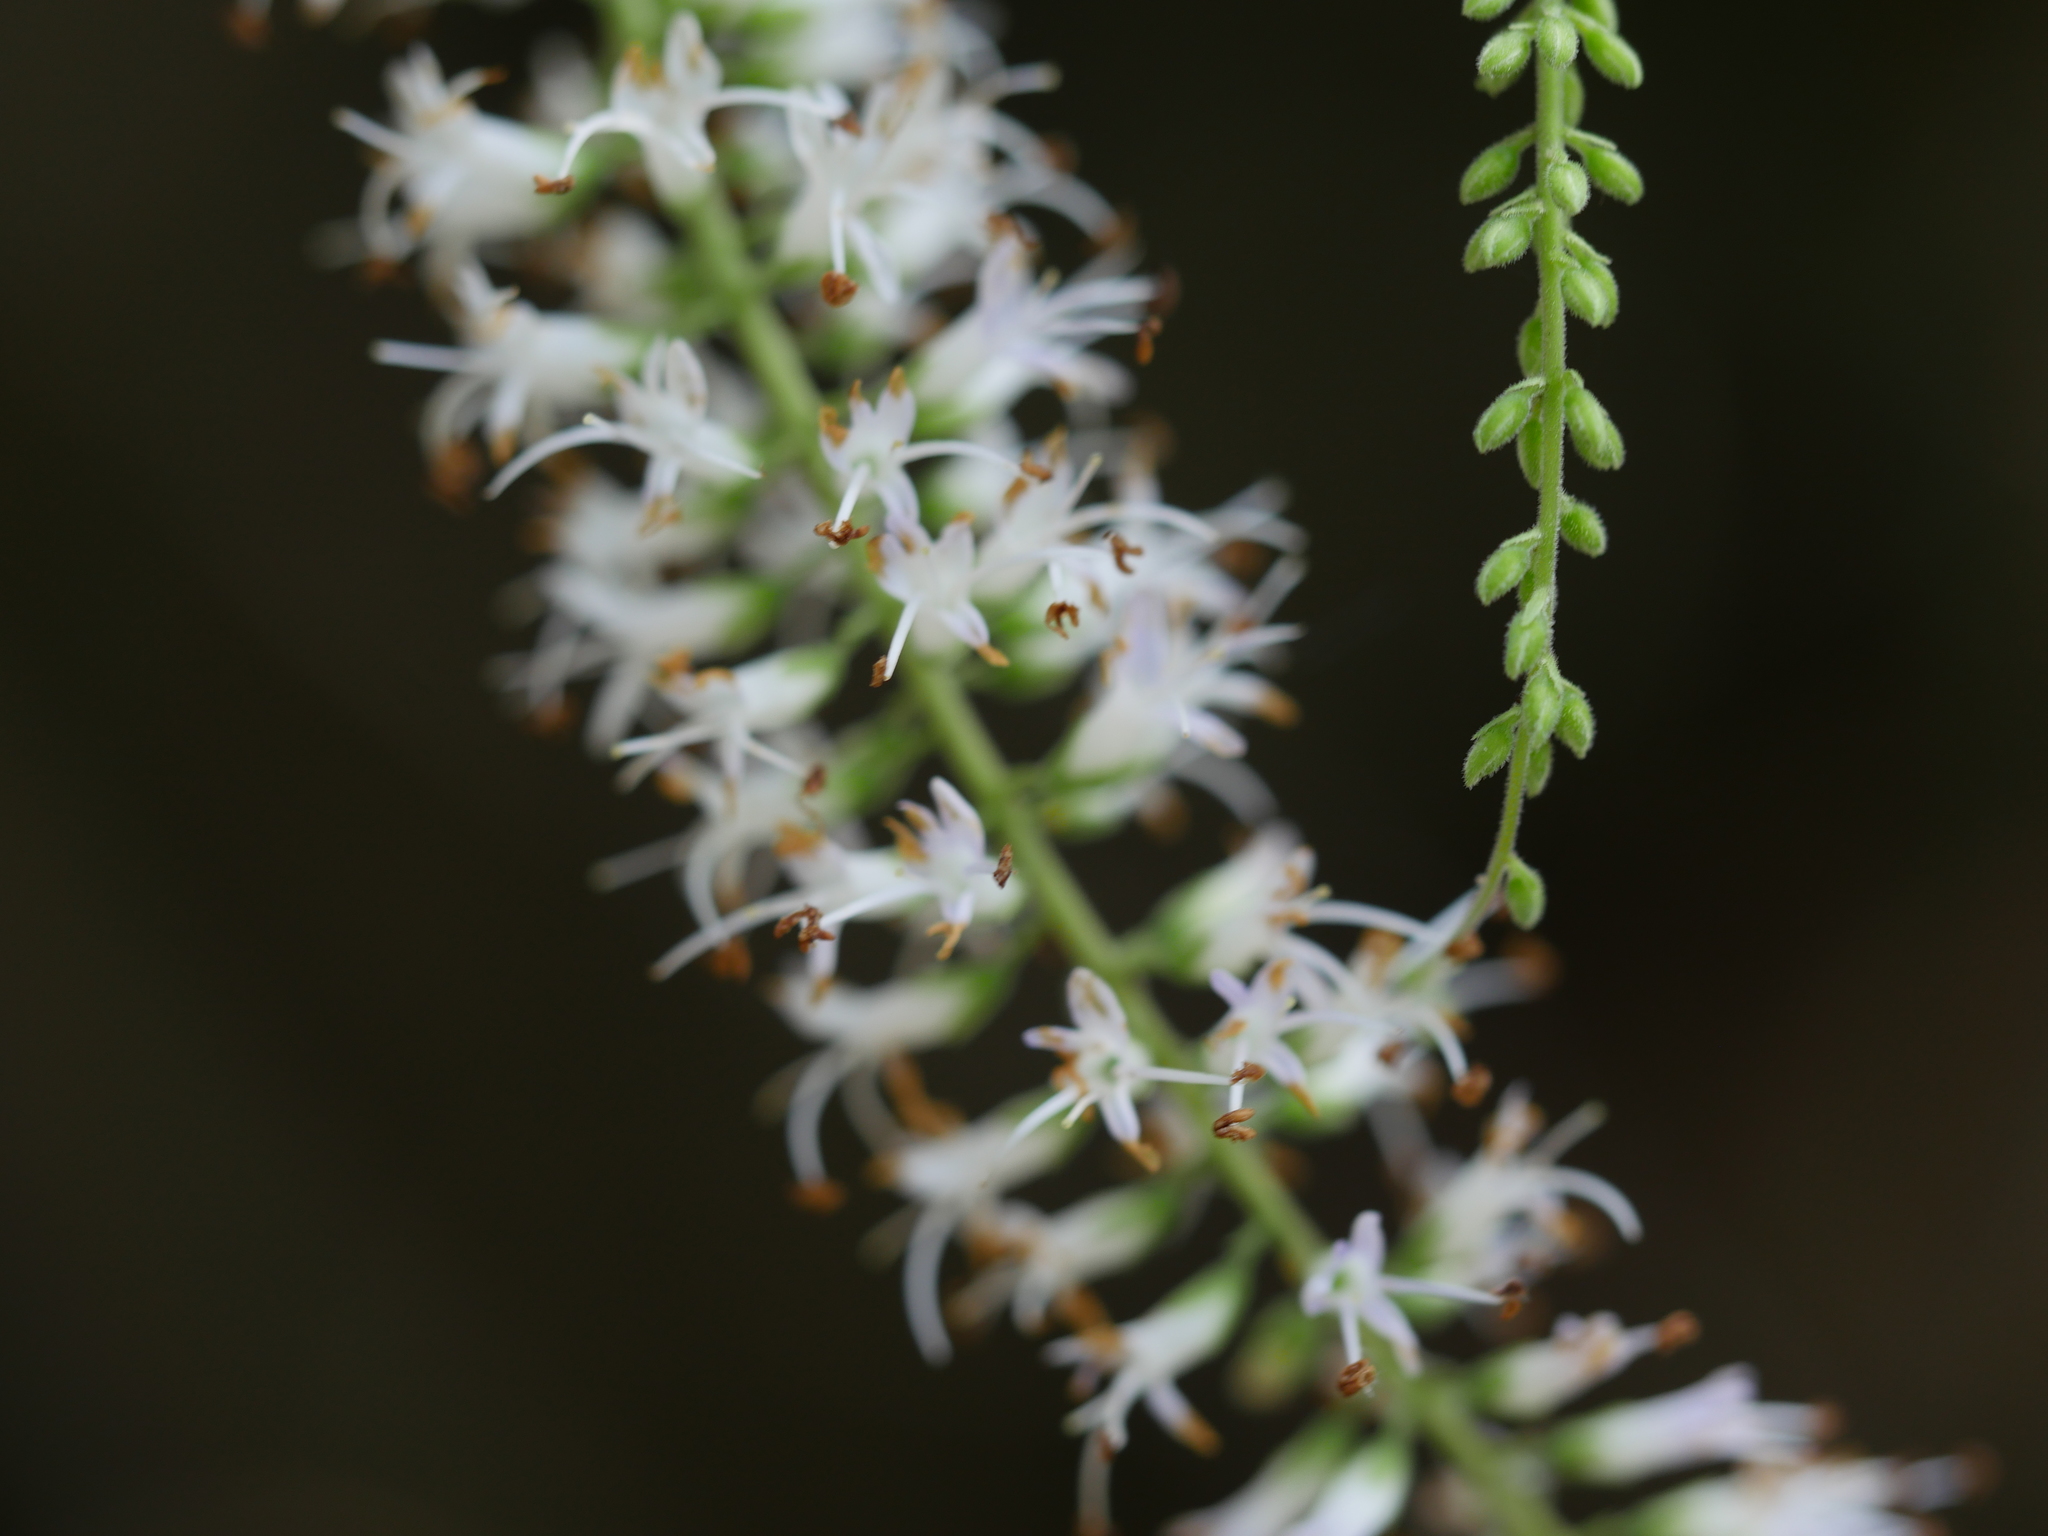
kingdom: Plantae
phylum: Tracheophyta
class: Magnoliopsida
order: Lamiales
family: Plantaginaceae
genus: Veronica
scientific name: Veronica stricta
